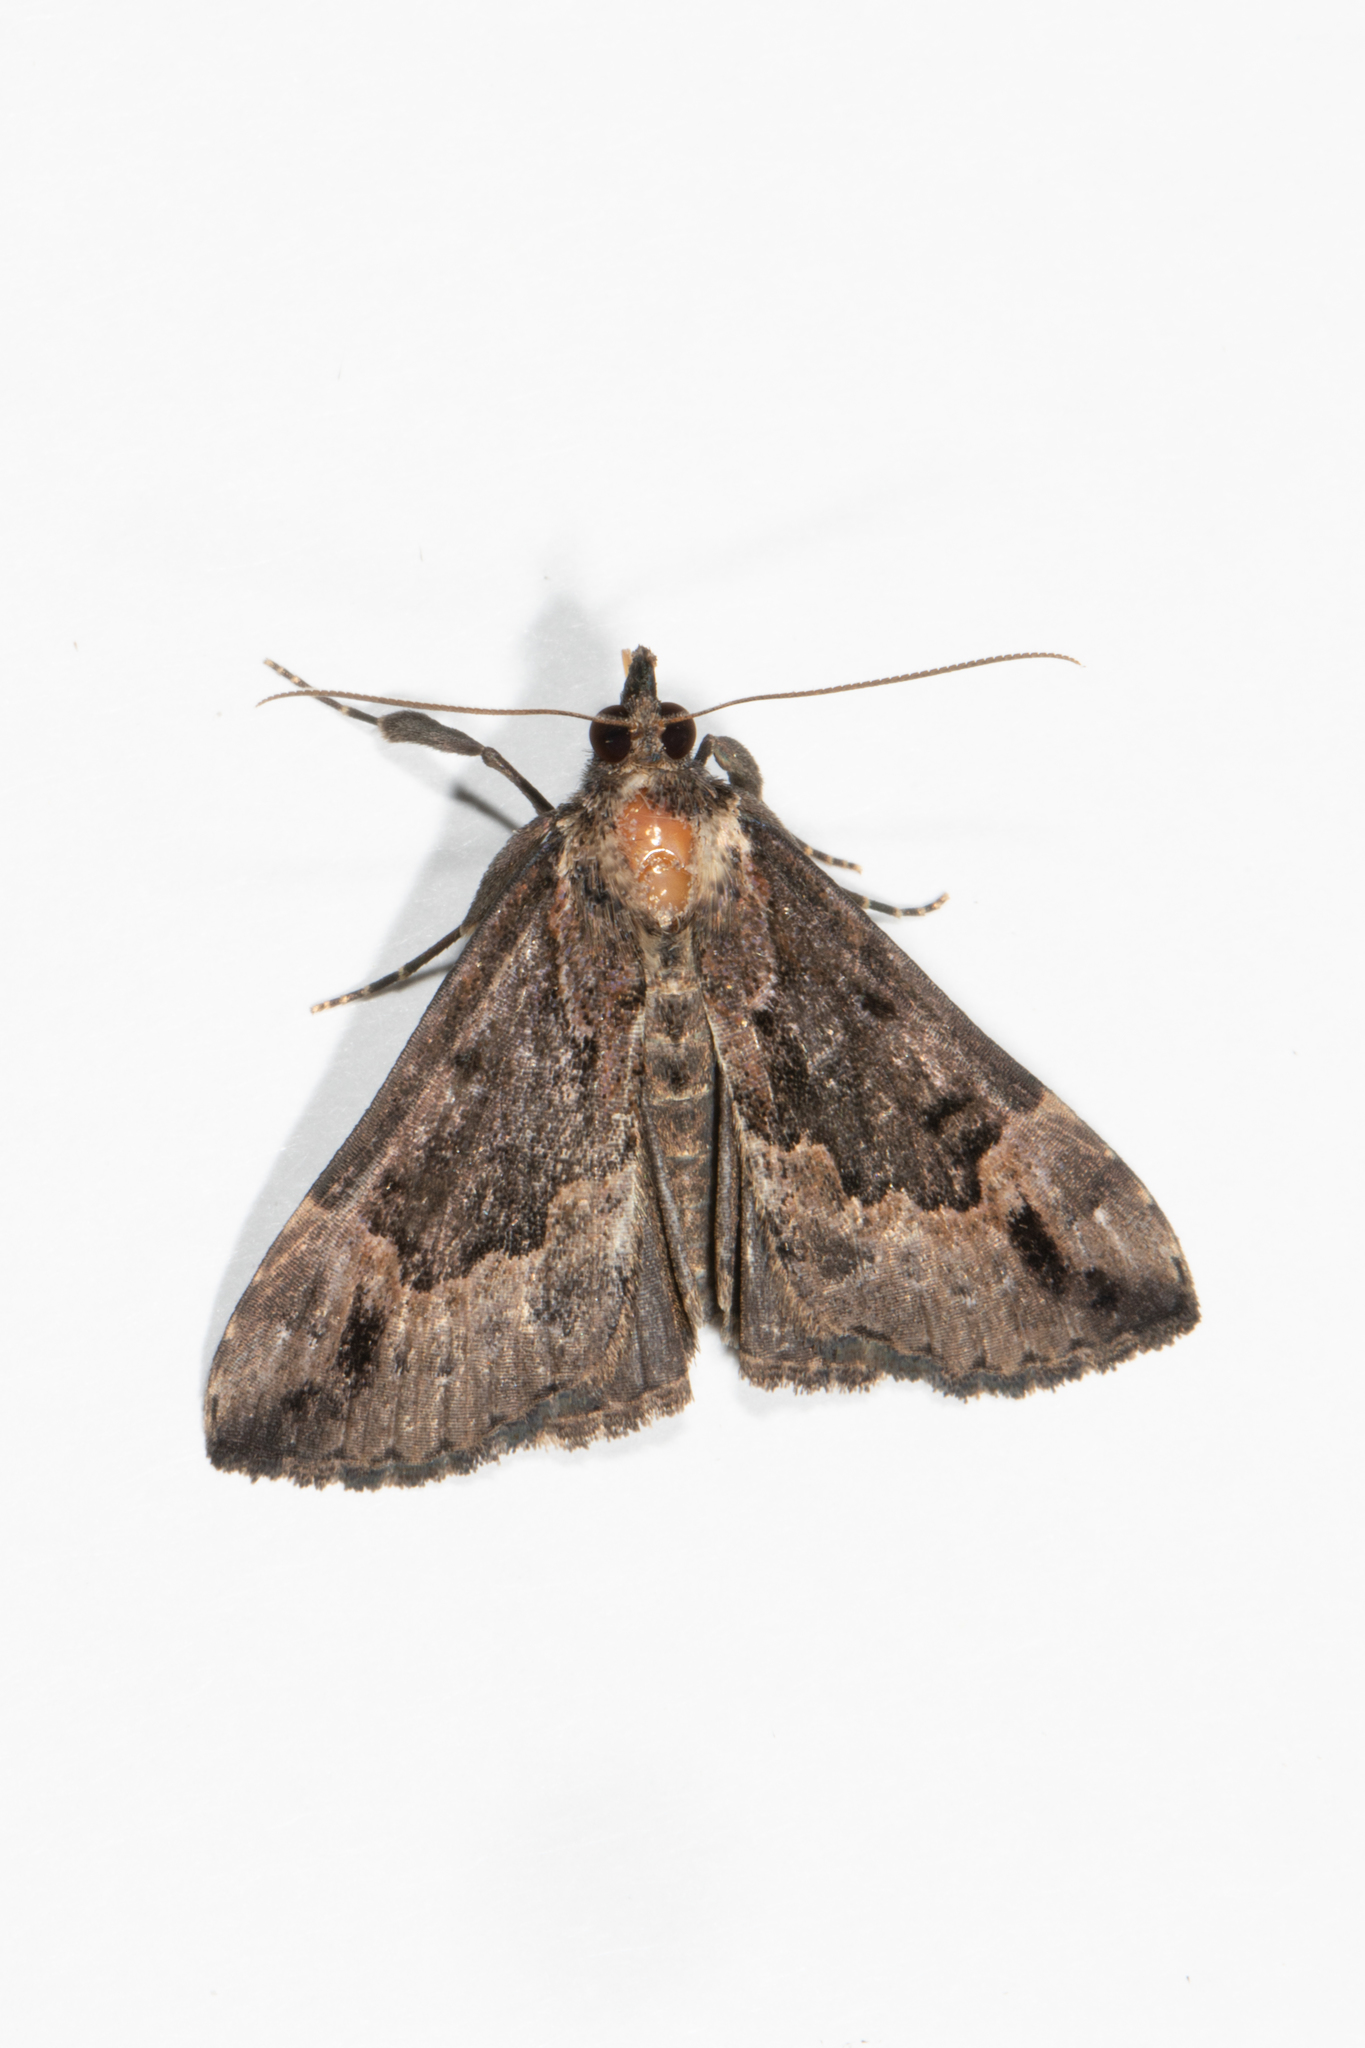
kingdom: Animalia
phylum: Arthropoda
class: Insecta
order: Lepidoptera
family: Erebidae
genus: Hypena
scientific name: Hypena palparia
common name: Mottled bomolocha moth
